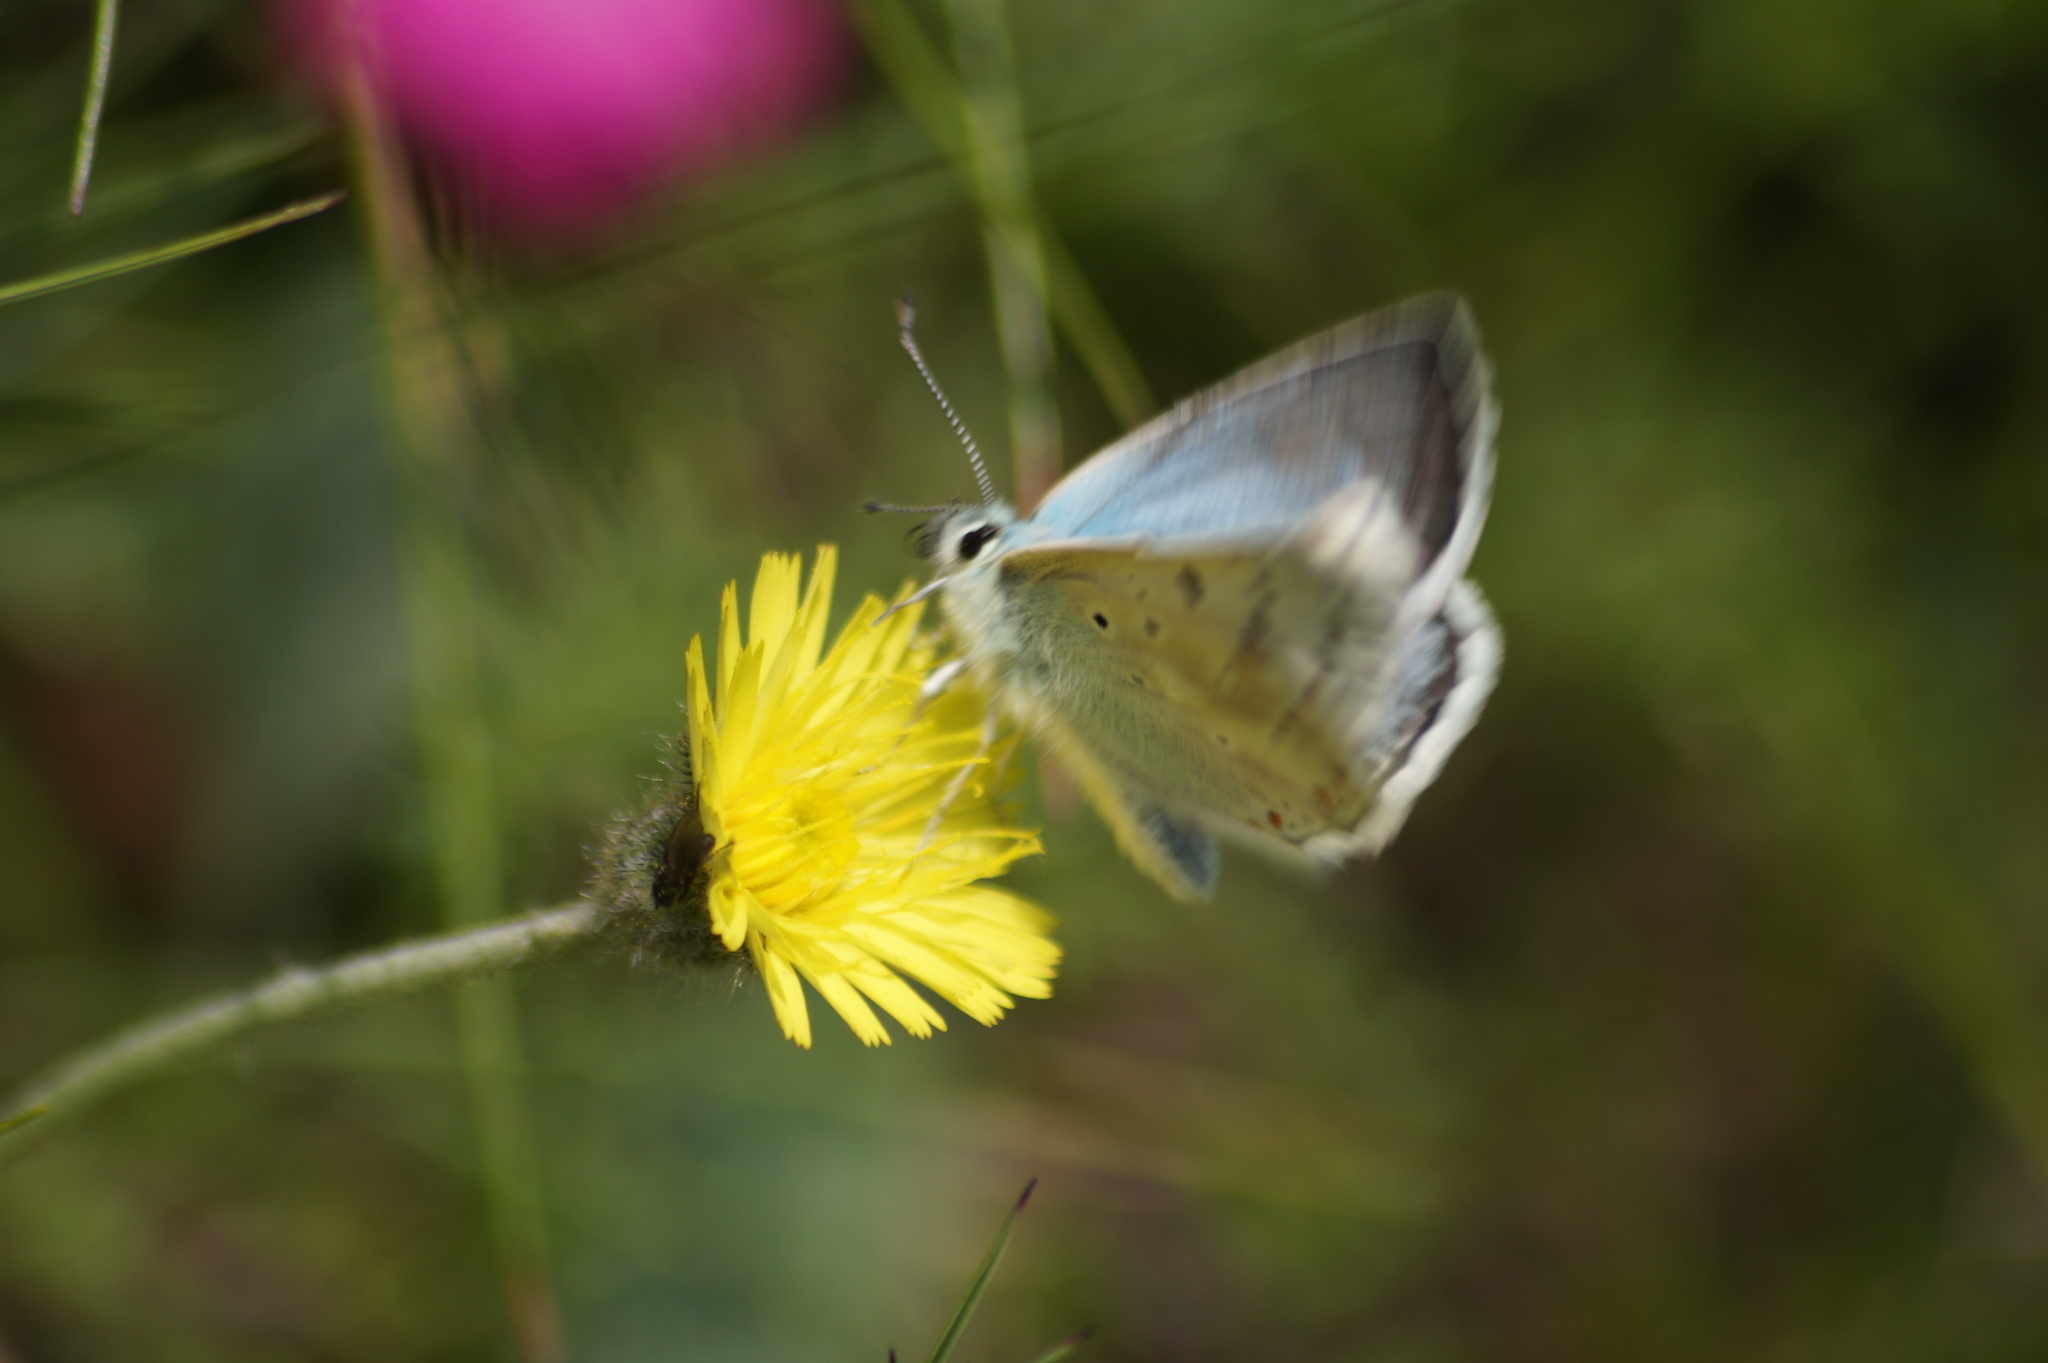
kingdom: Animalia
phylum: Arthropoda
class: Insecta
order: Lepidoptera
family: Lycaenidae
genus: Lysandra
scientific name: Lysandra coridon
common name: Chalkhill blue
